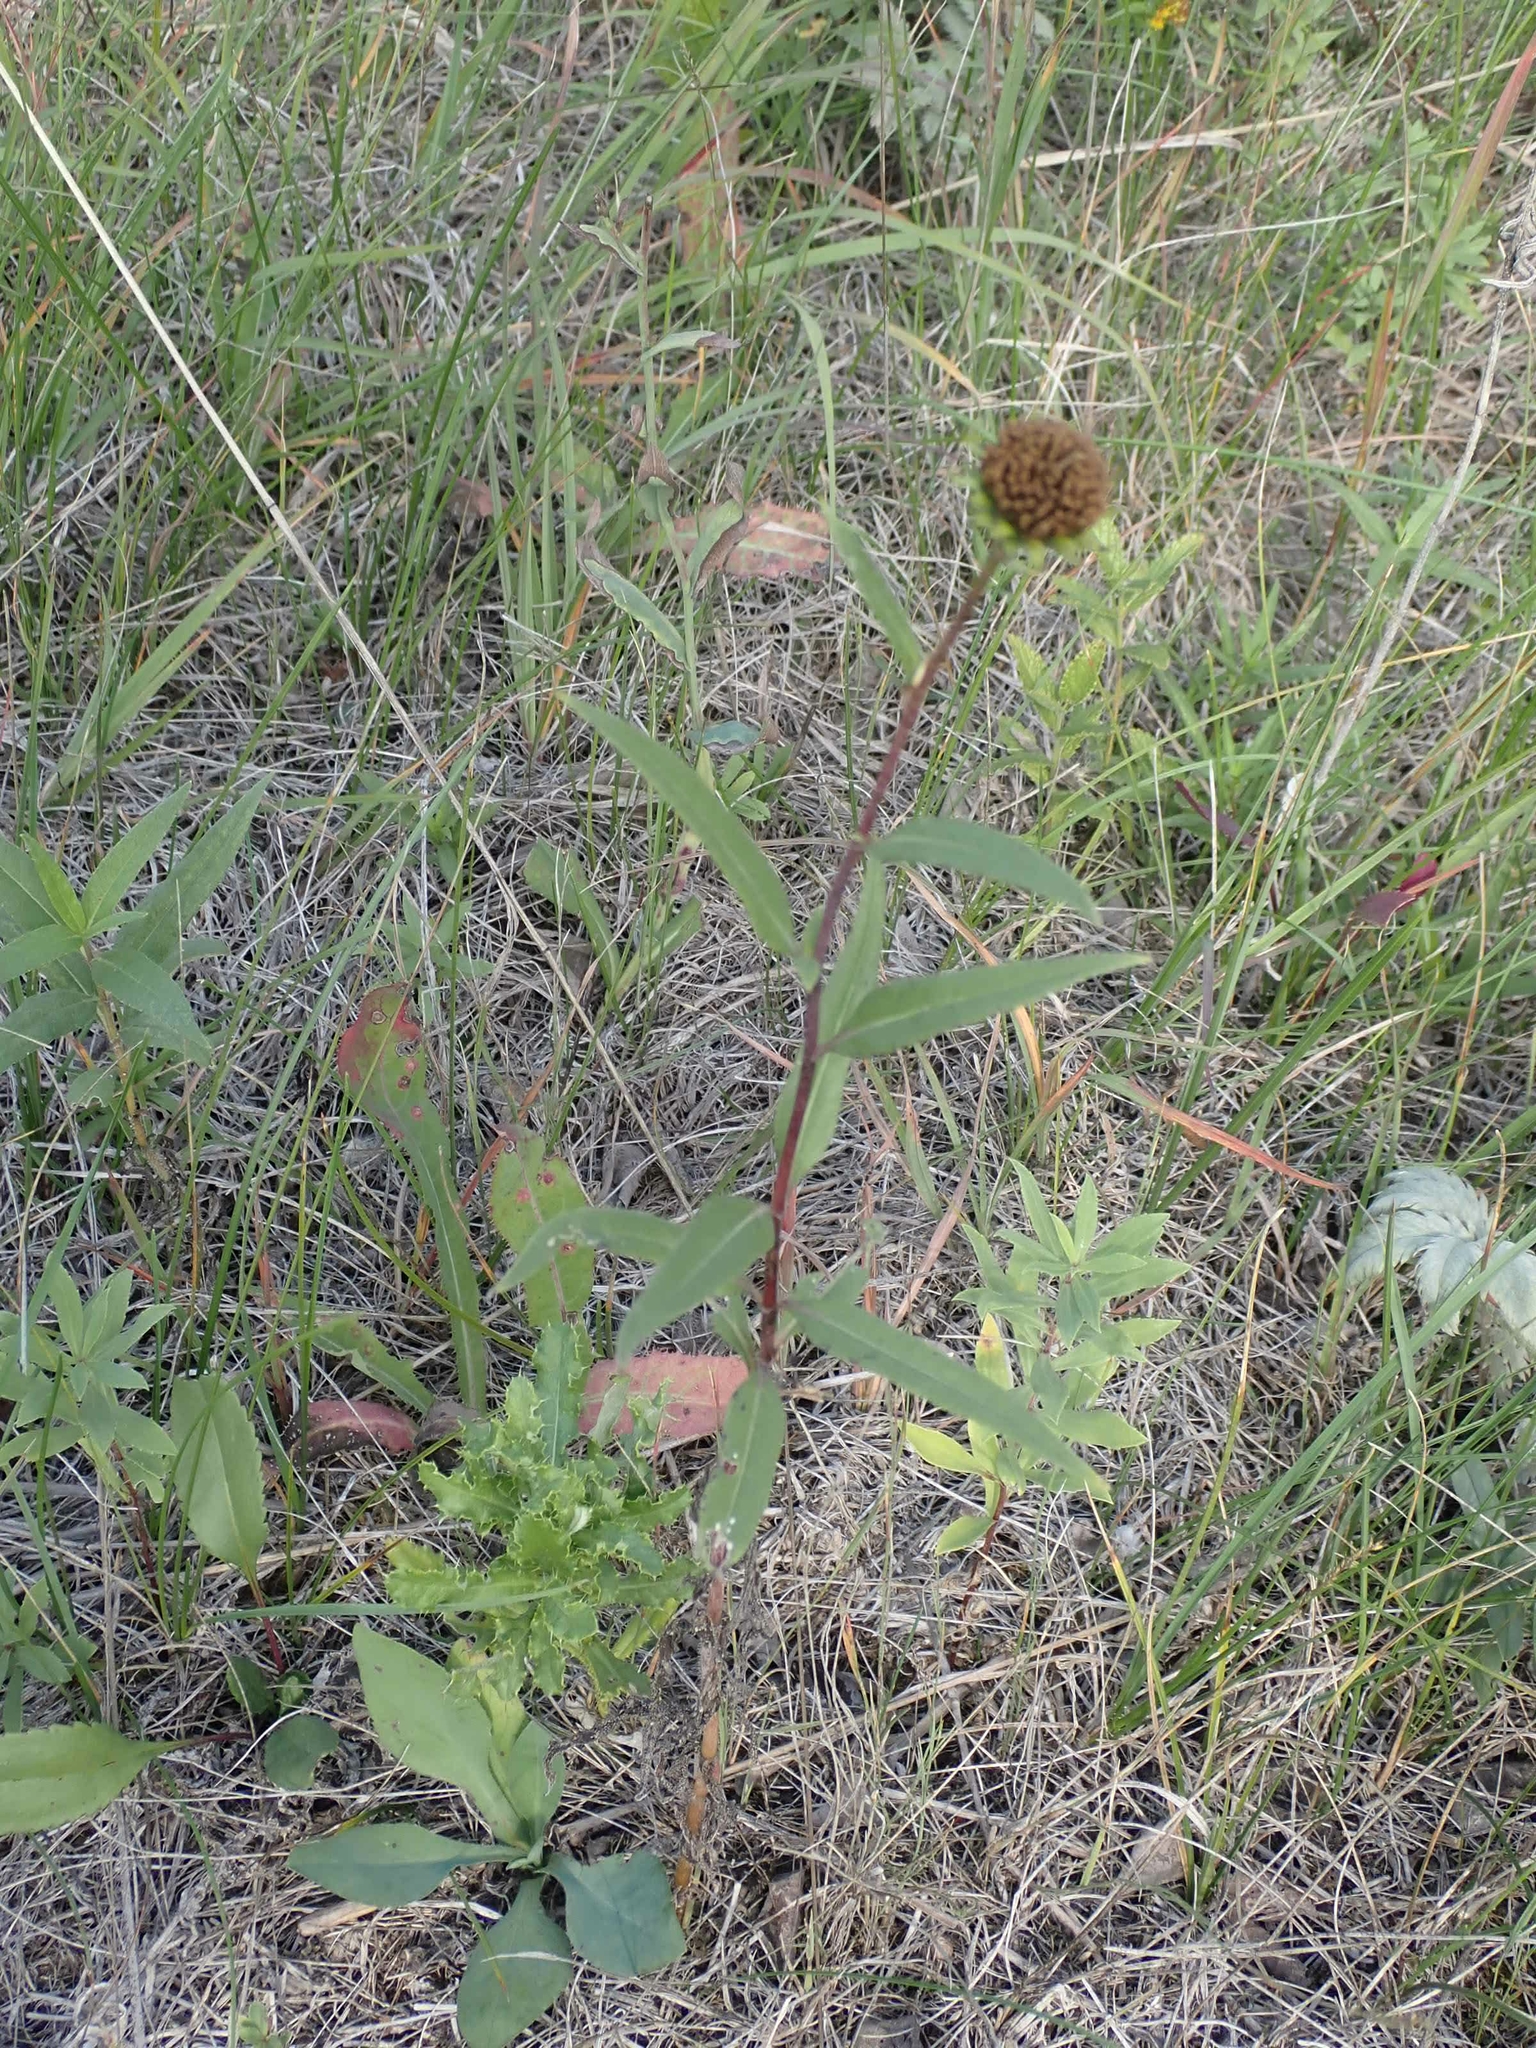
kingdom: Plantae
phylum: Tracheophyta
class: Magnoliopsida
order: Asterales
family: Asteraceae
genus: Helianthus
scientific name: Helianthus pauciflorus
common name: Stiff sunflower
